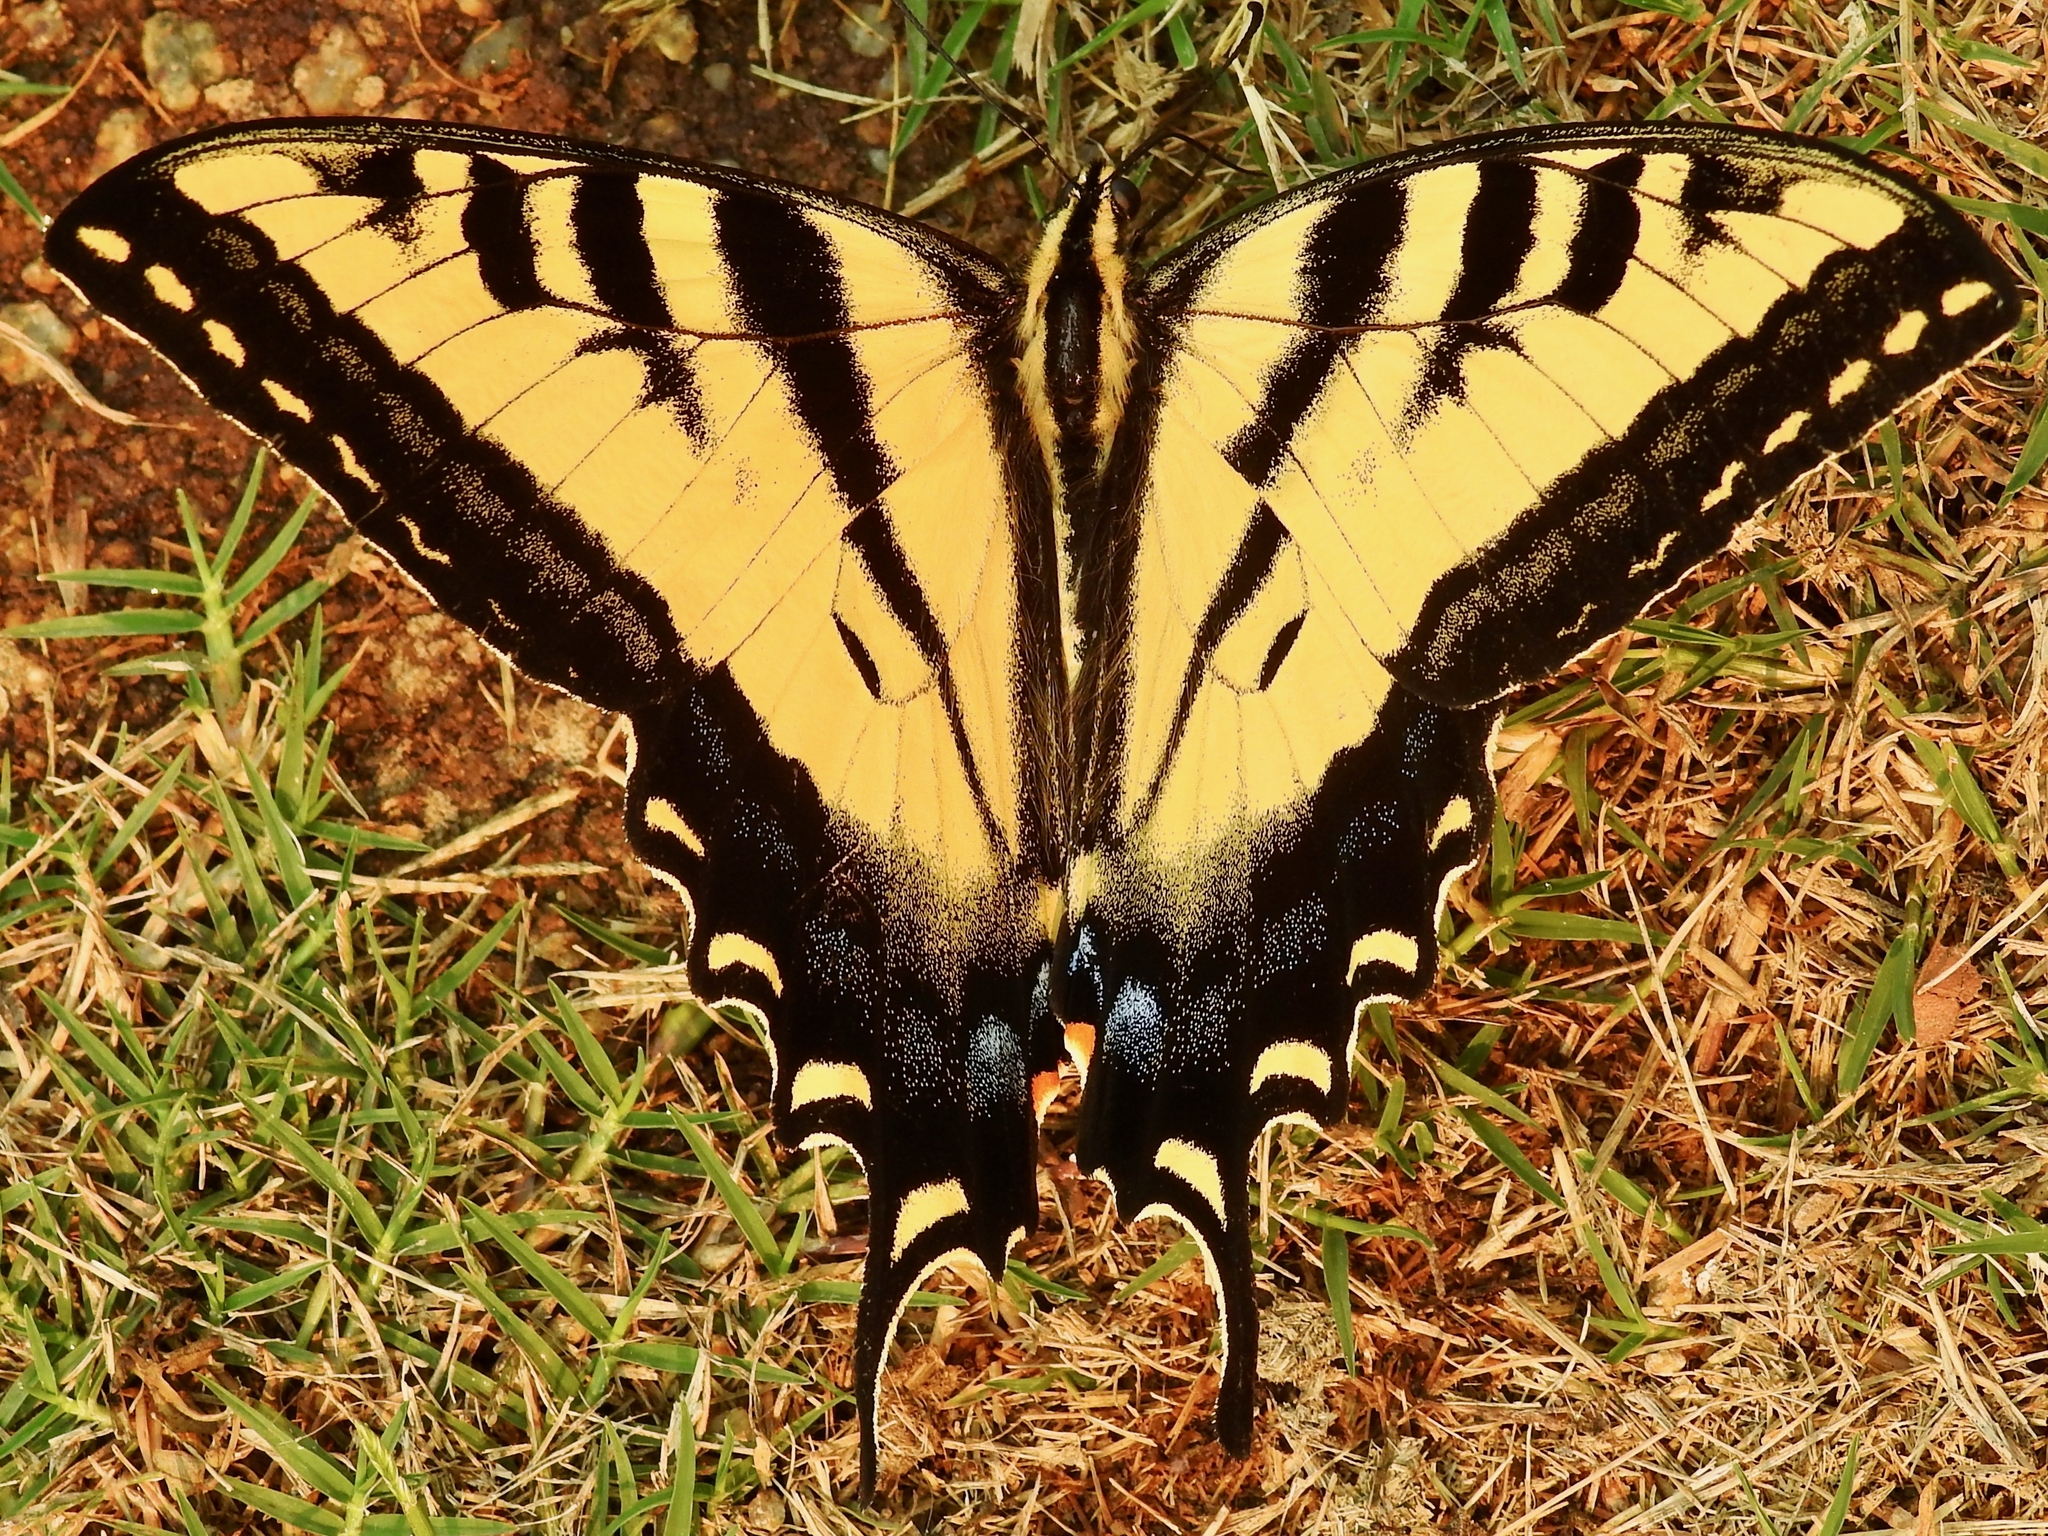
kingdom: Animalia
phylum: Arthropoda
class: Insecta
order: Lepidoptera
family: Papilionidae
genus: Papilio
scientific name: Papilio rutulus
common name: Western tiger swallowtail
